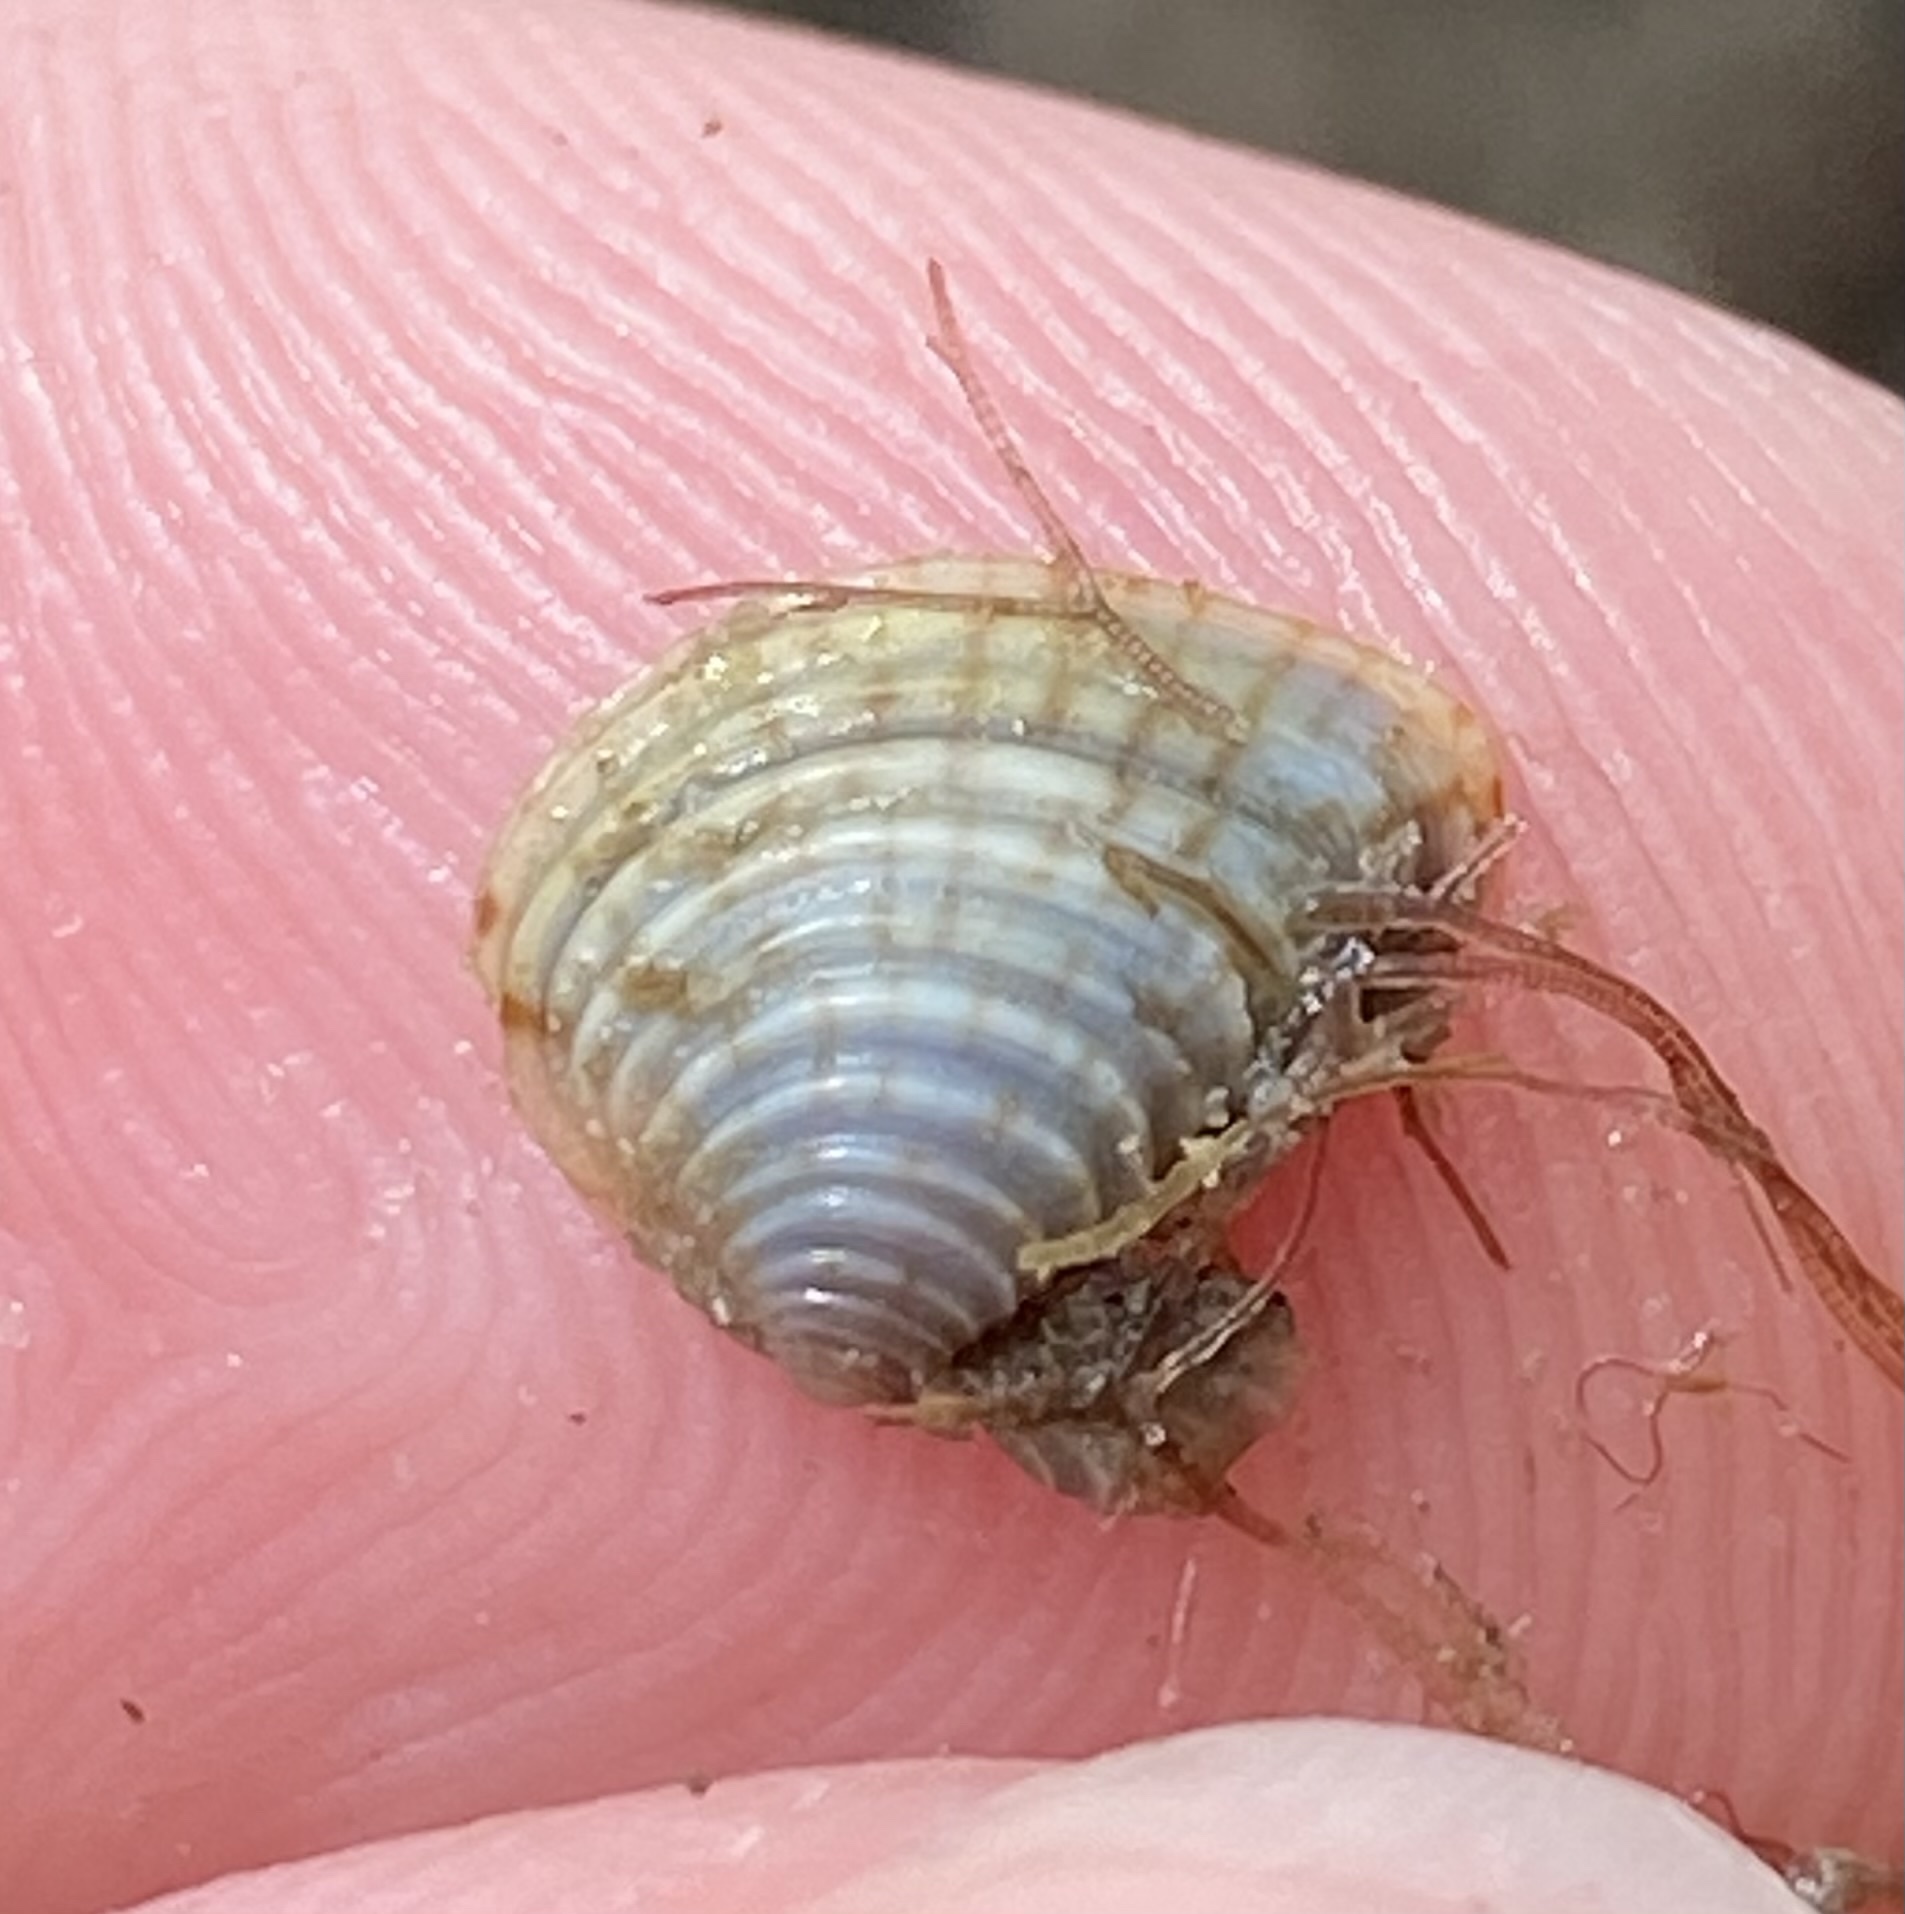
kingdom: Animalia
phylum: Mollusca
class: Bivalvia
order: Venerida
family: Veneridae
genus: Anomalocardia
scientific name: Anomalocardia cuneimeris
